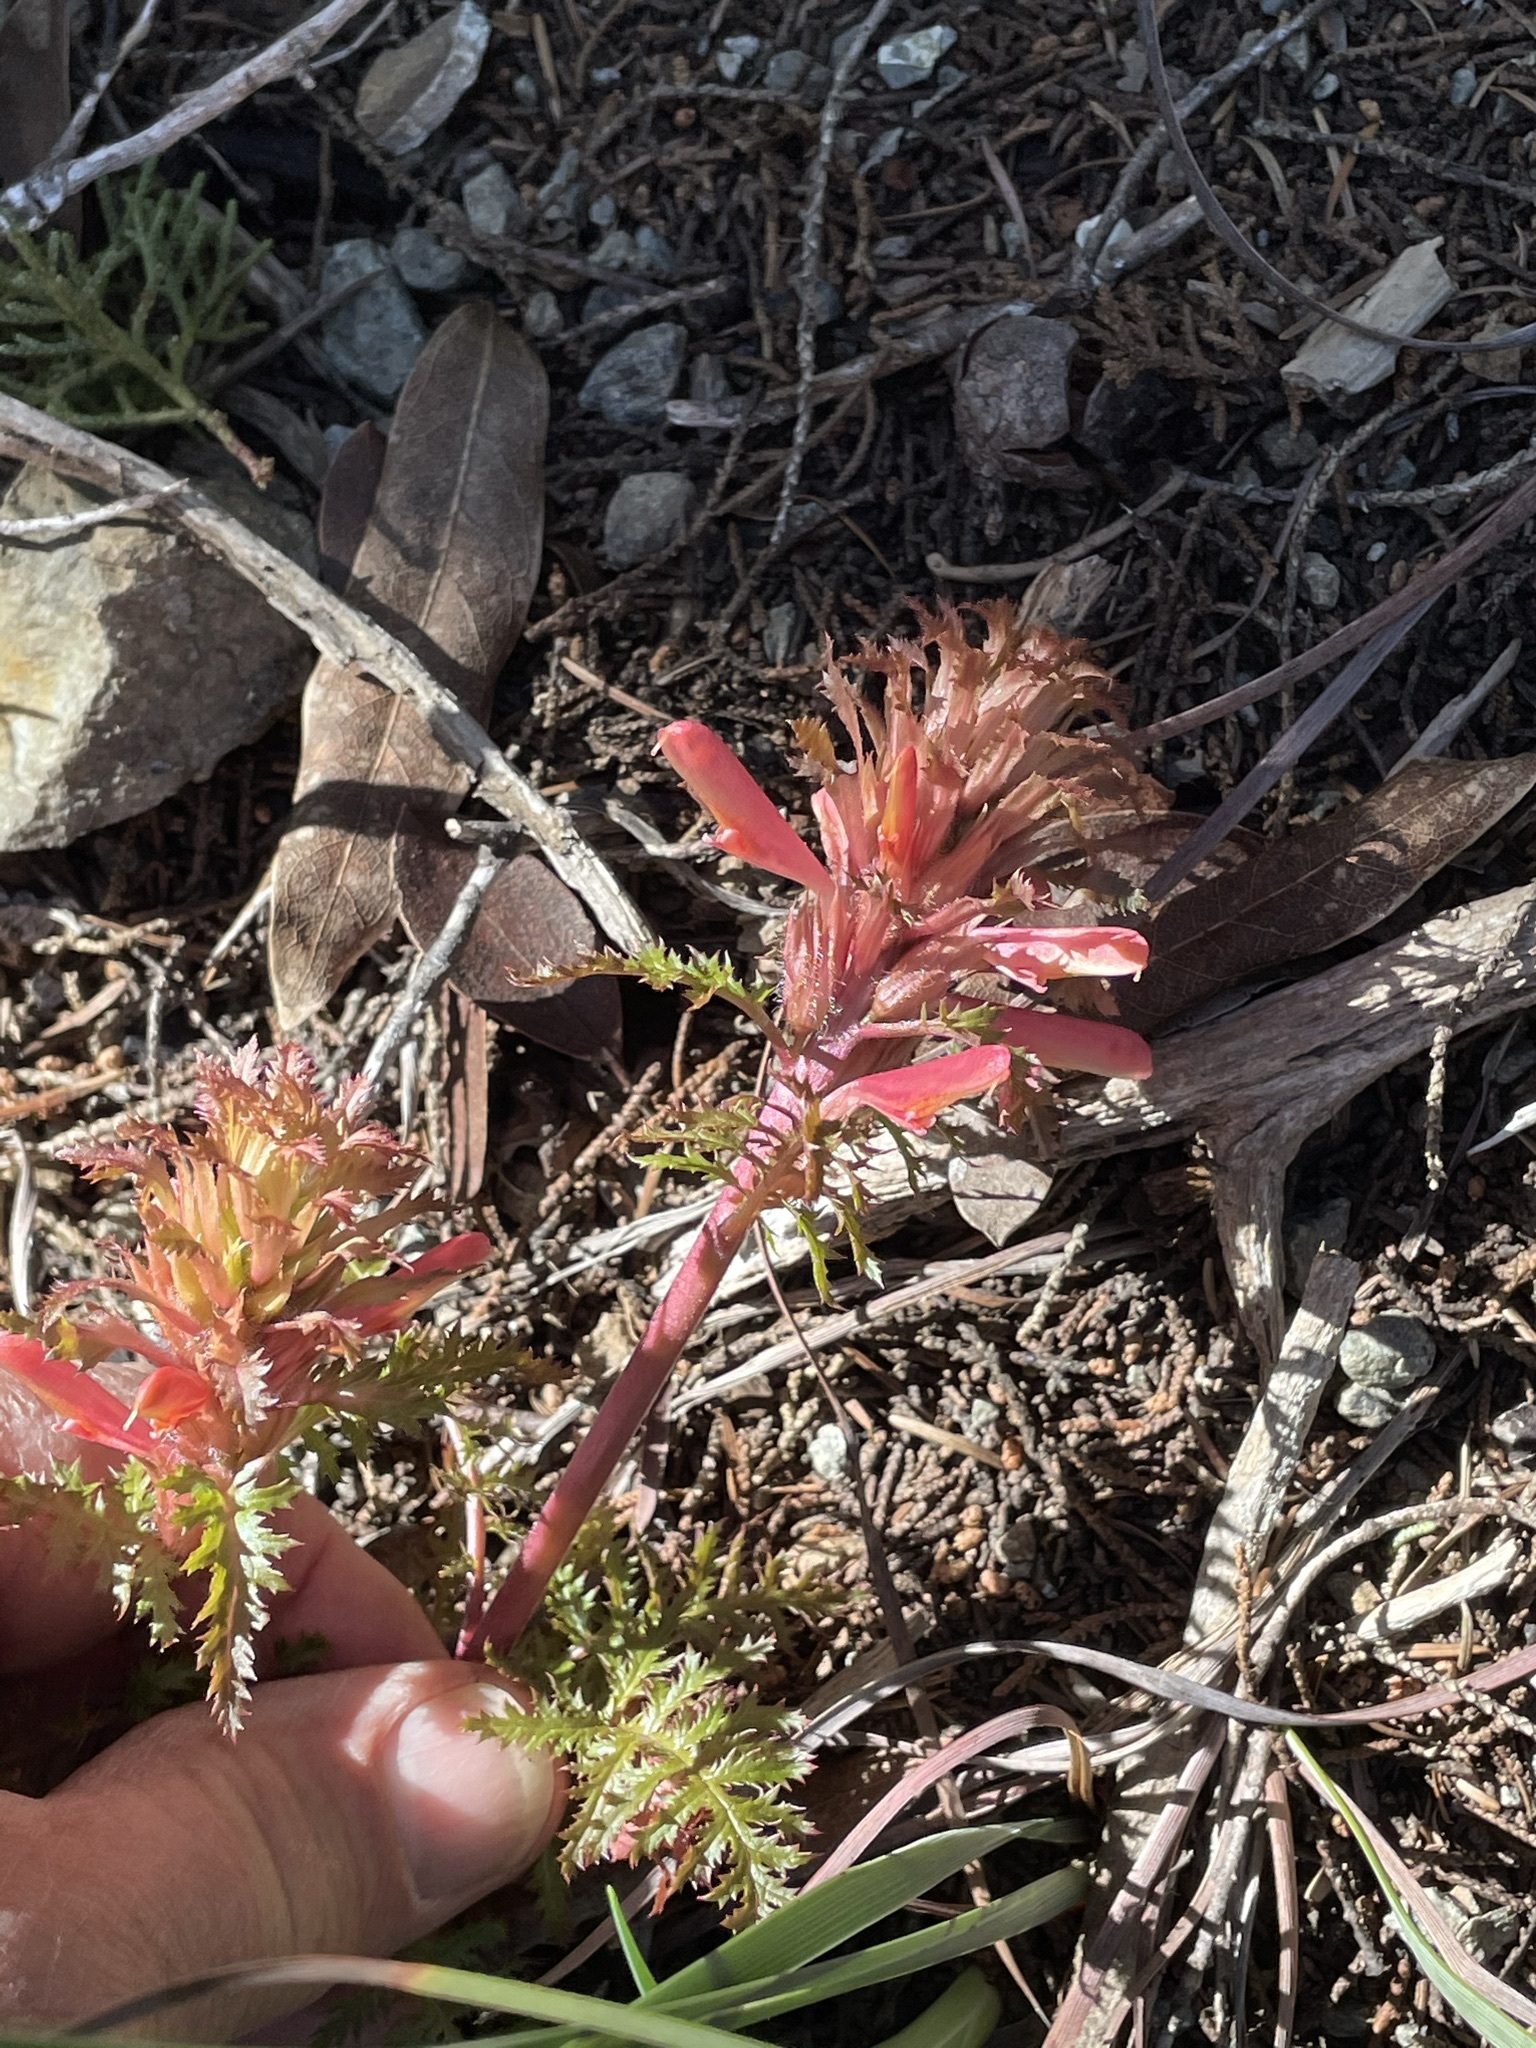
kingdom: Plantae
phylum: Tracheophyta
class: Magnoliopsida
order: Lamiales
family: Orobanchaceae
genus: Pedicularis
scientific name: Pedicularis densiflora
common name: Indian warrior
